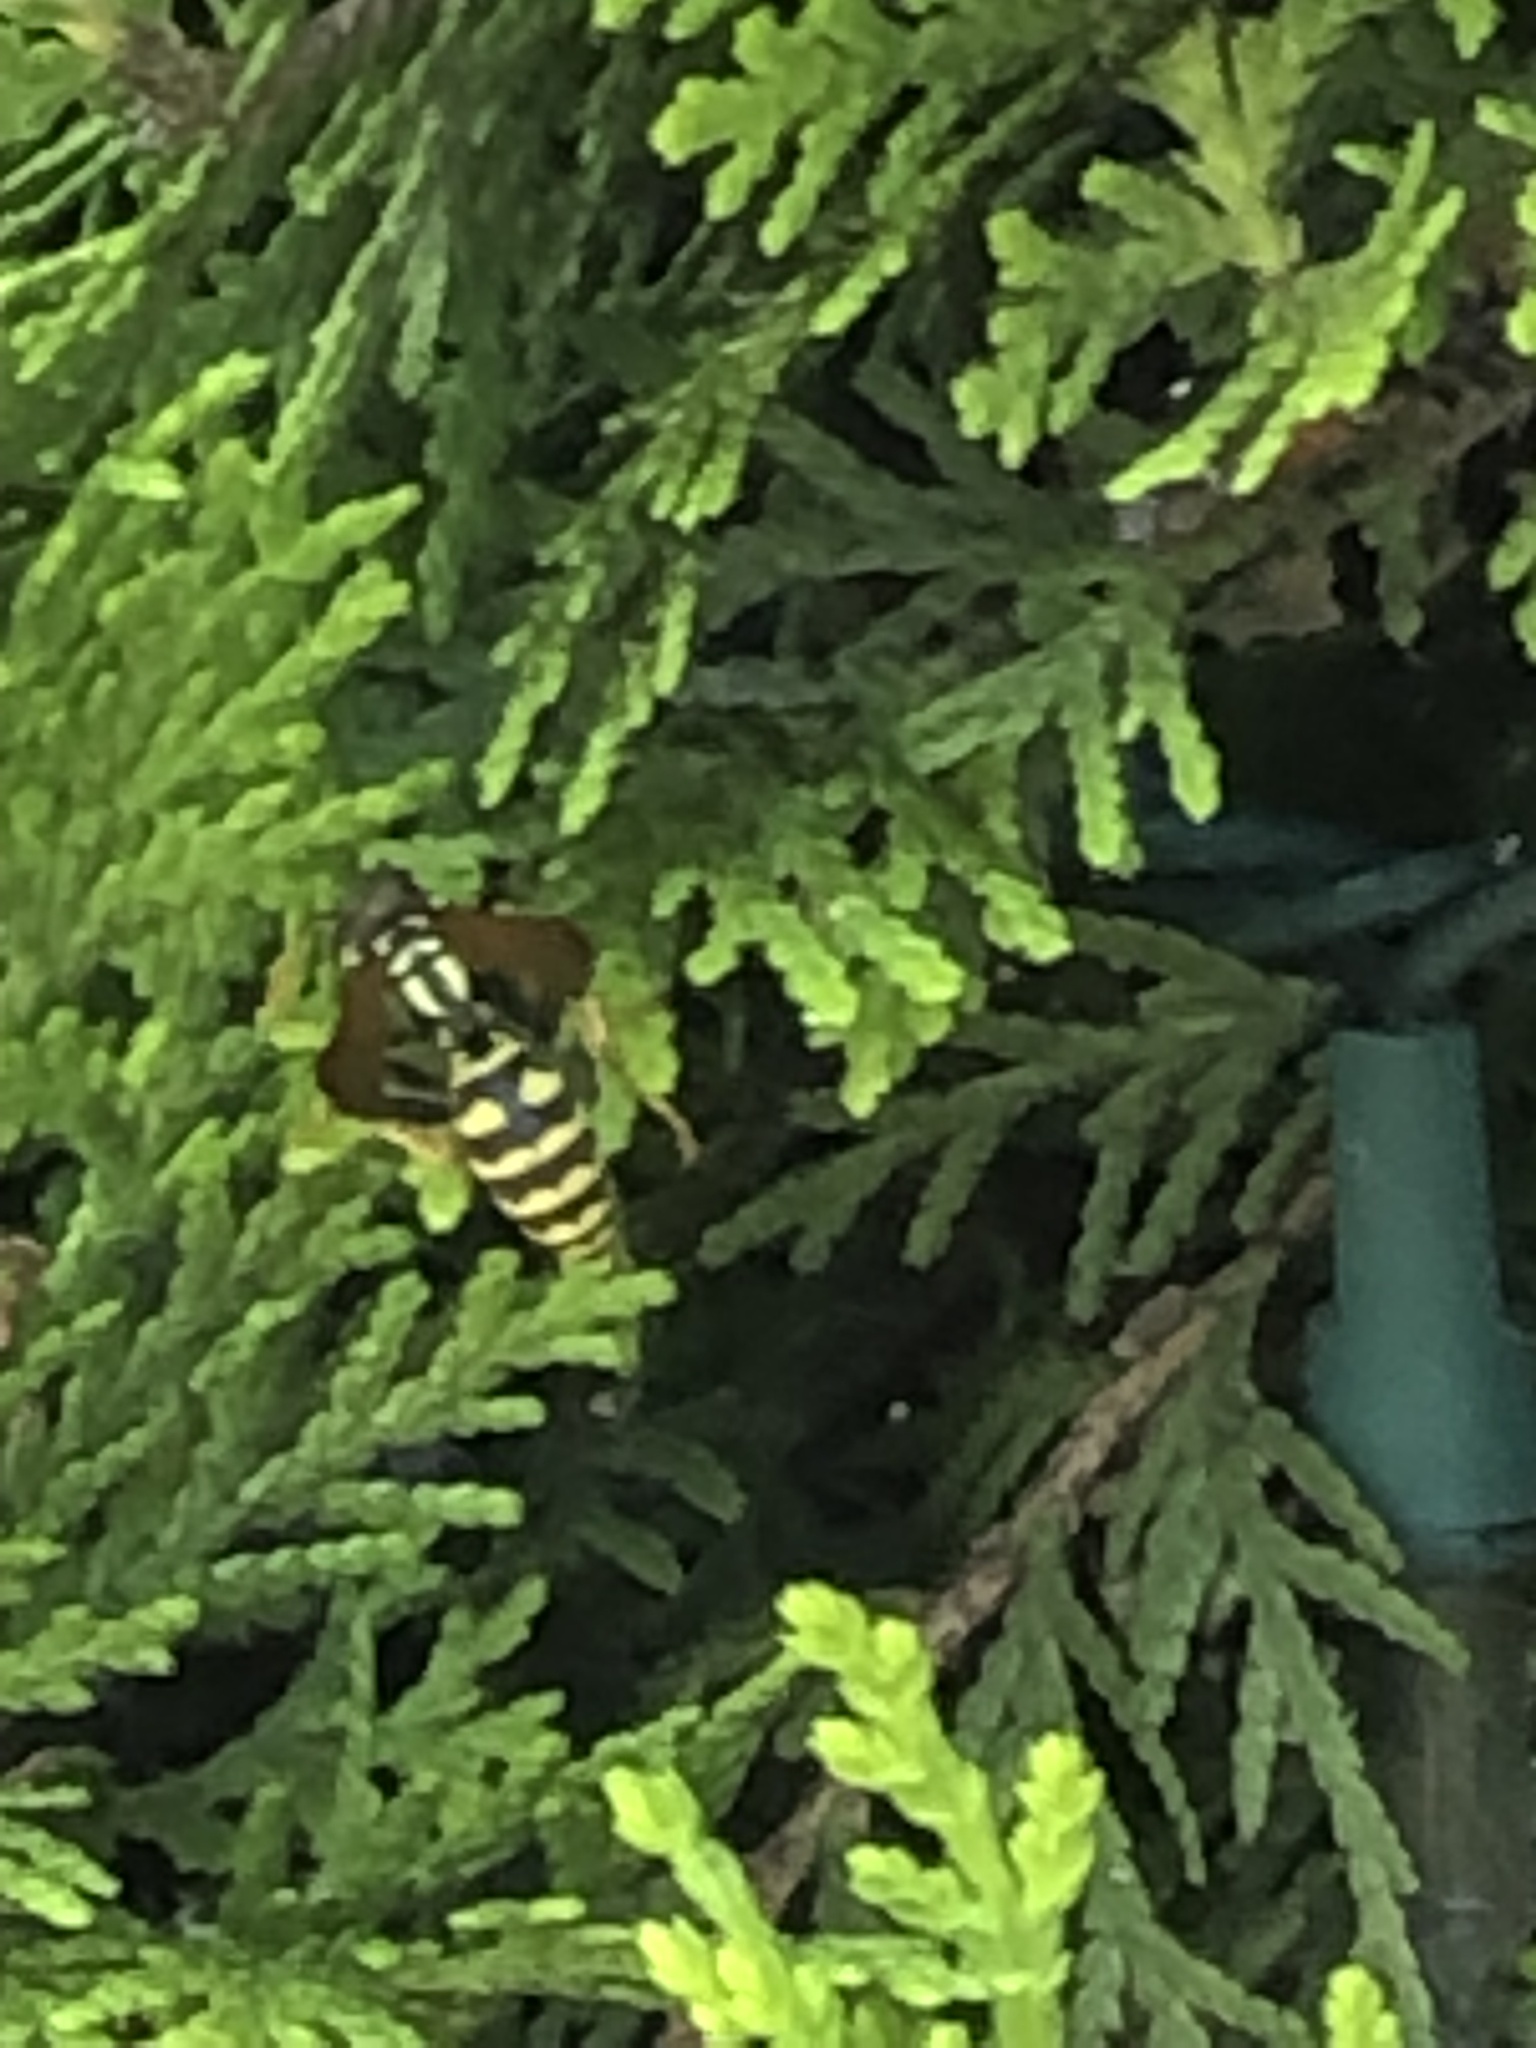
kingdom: Animalia
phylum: Arthropoda
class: Insecta
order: Hymenoptera
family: Eumenidae
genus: Polistes
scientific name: Polistes dominula
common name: Paper wasp
